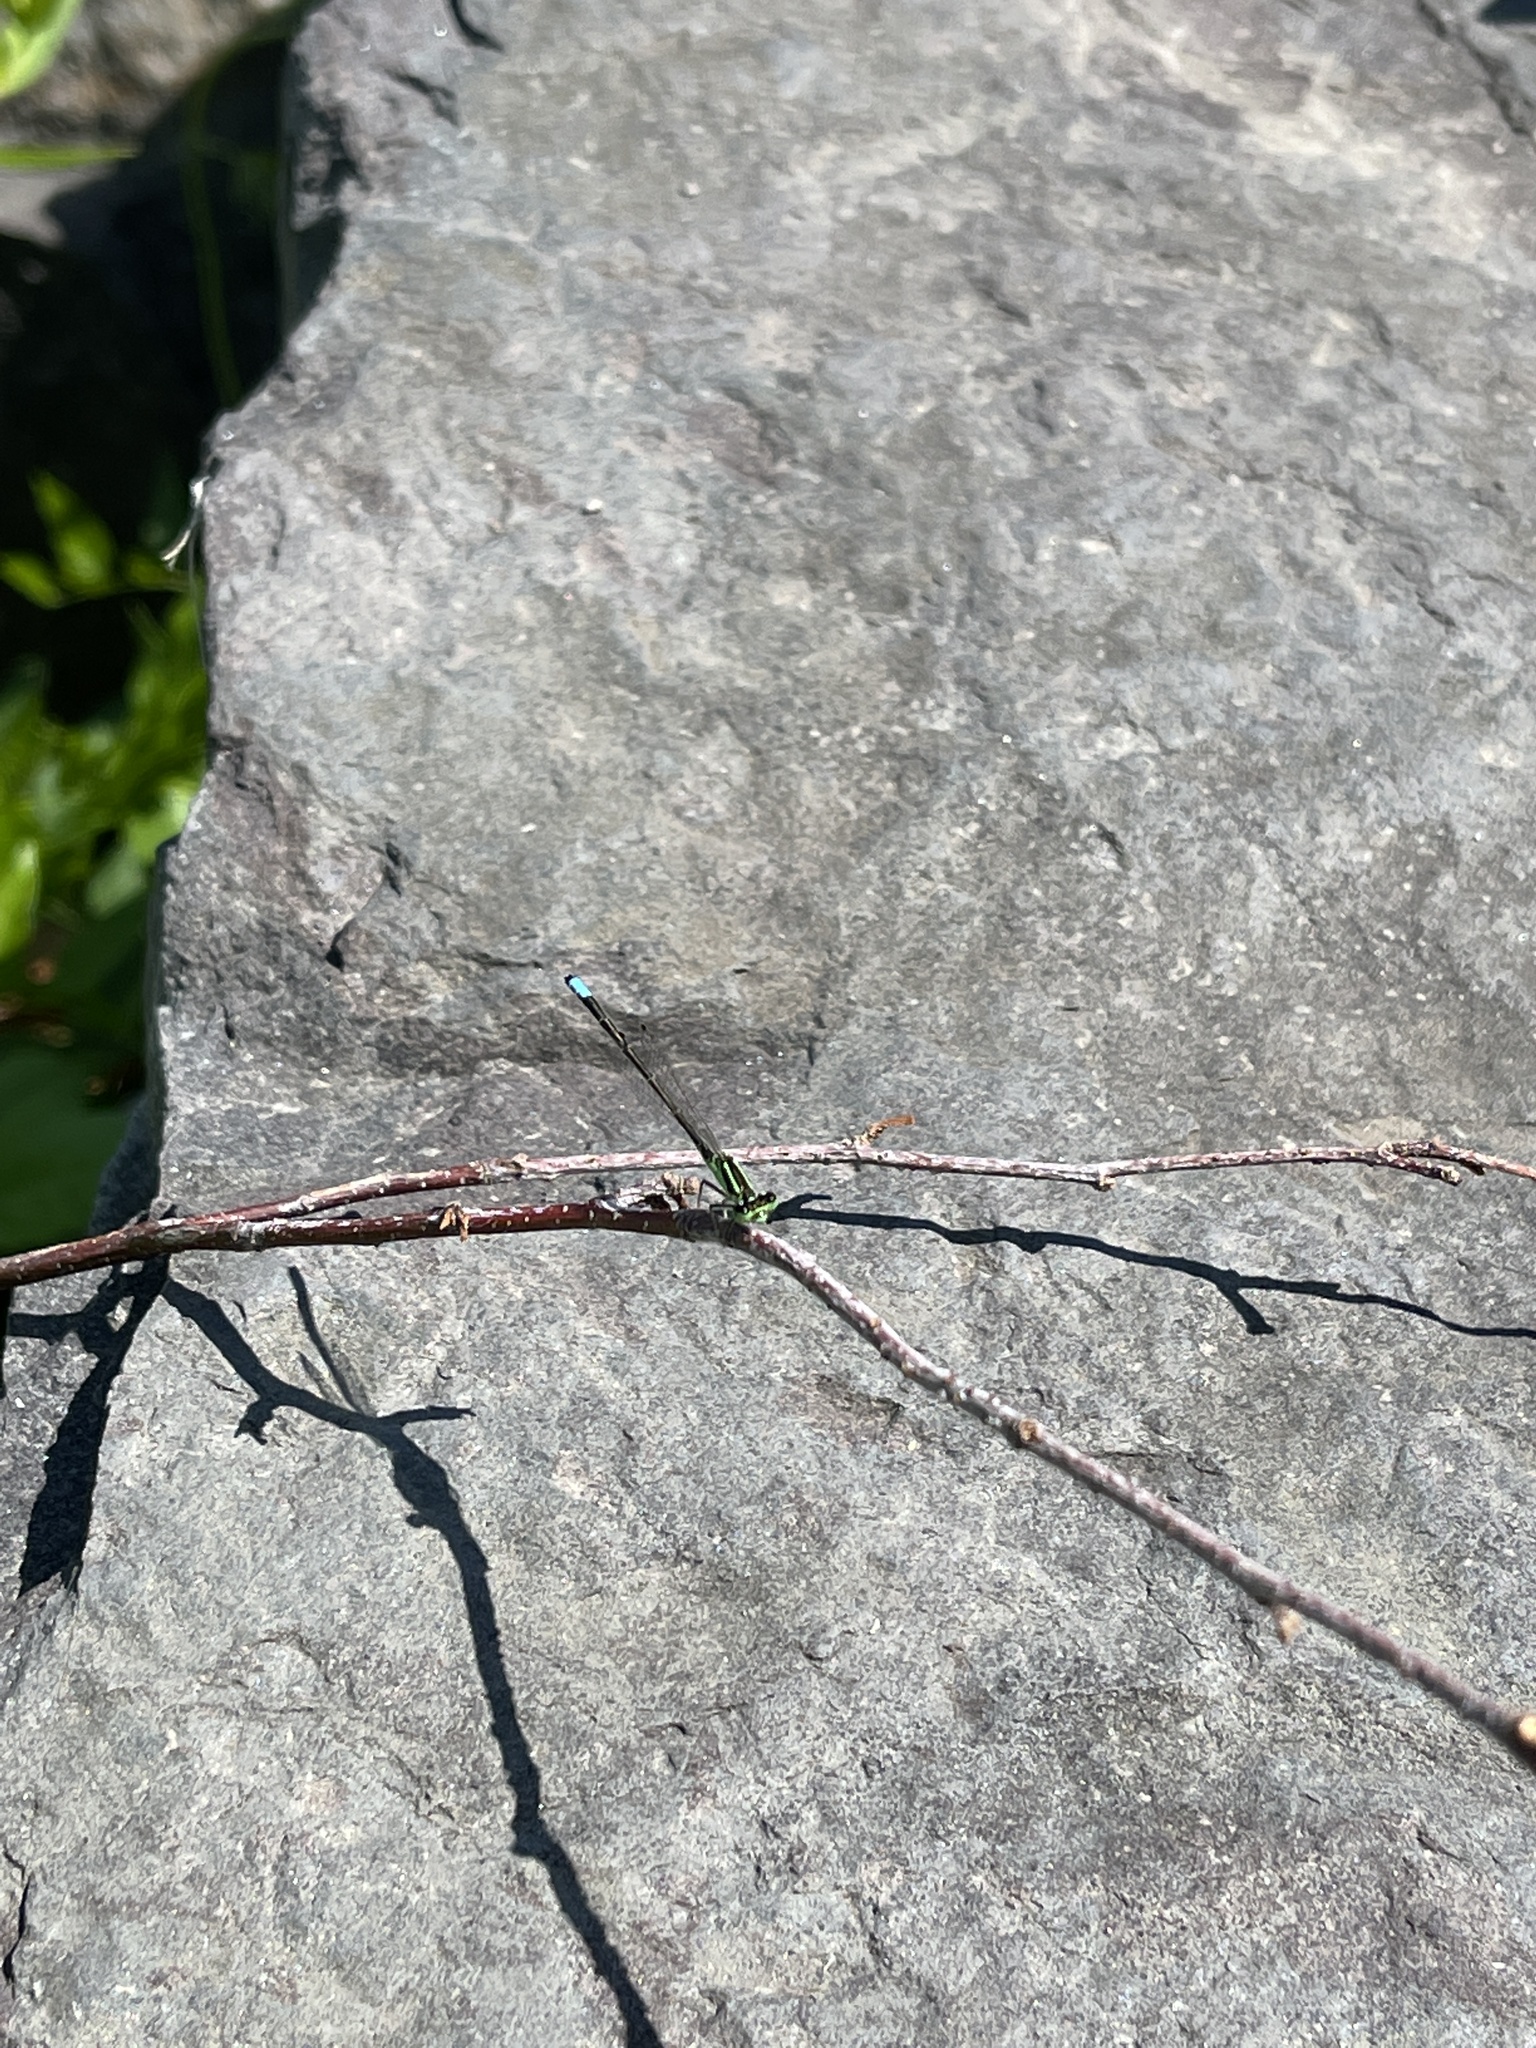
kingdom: Animalia
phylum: Arthropoda
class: Insecta
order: Odonata
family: Coenagrionidae
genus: Ischnura
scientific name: Ischnura verticalis
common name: Eastern forktail
